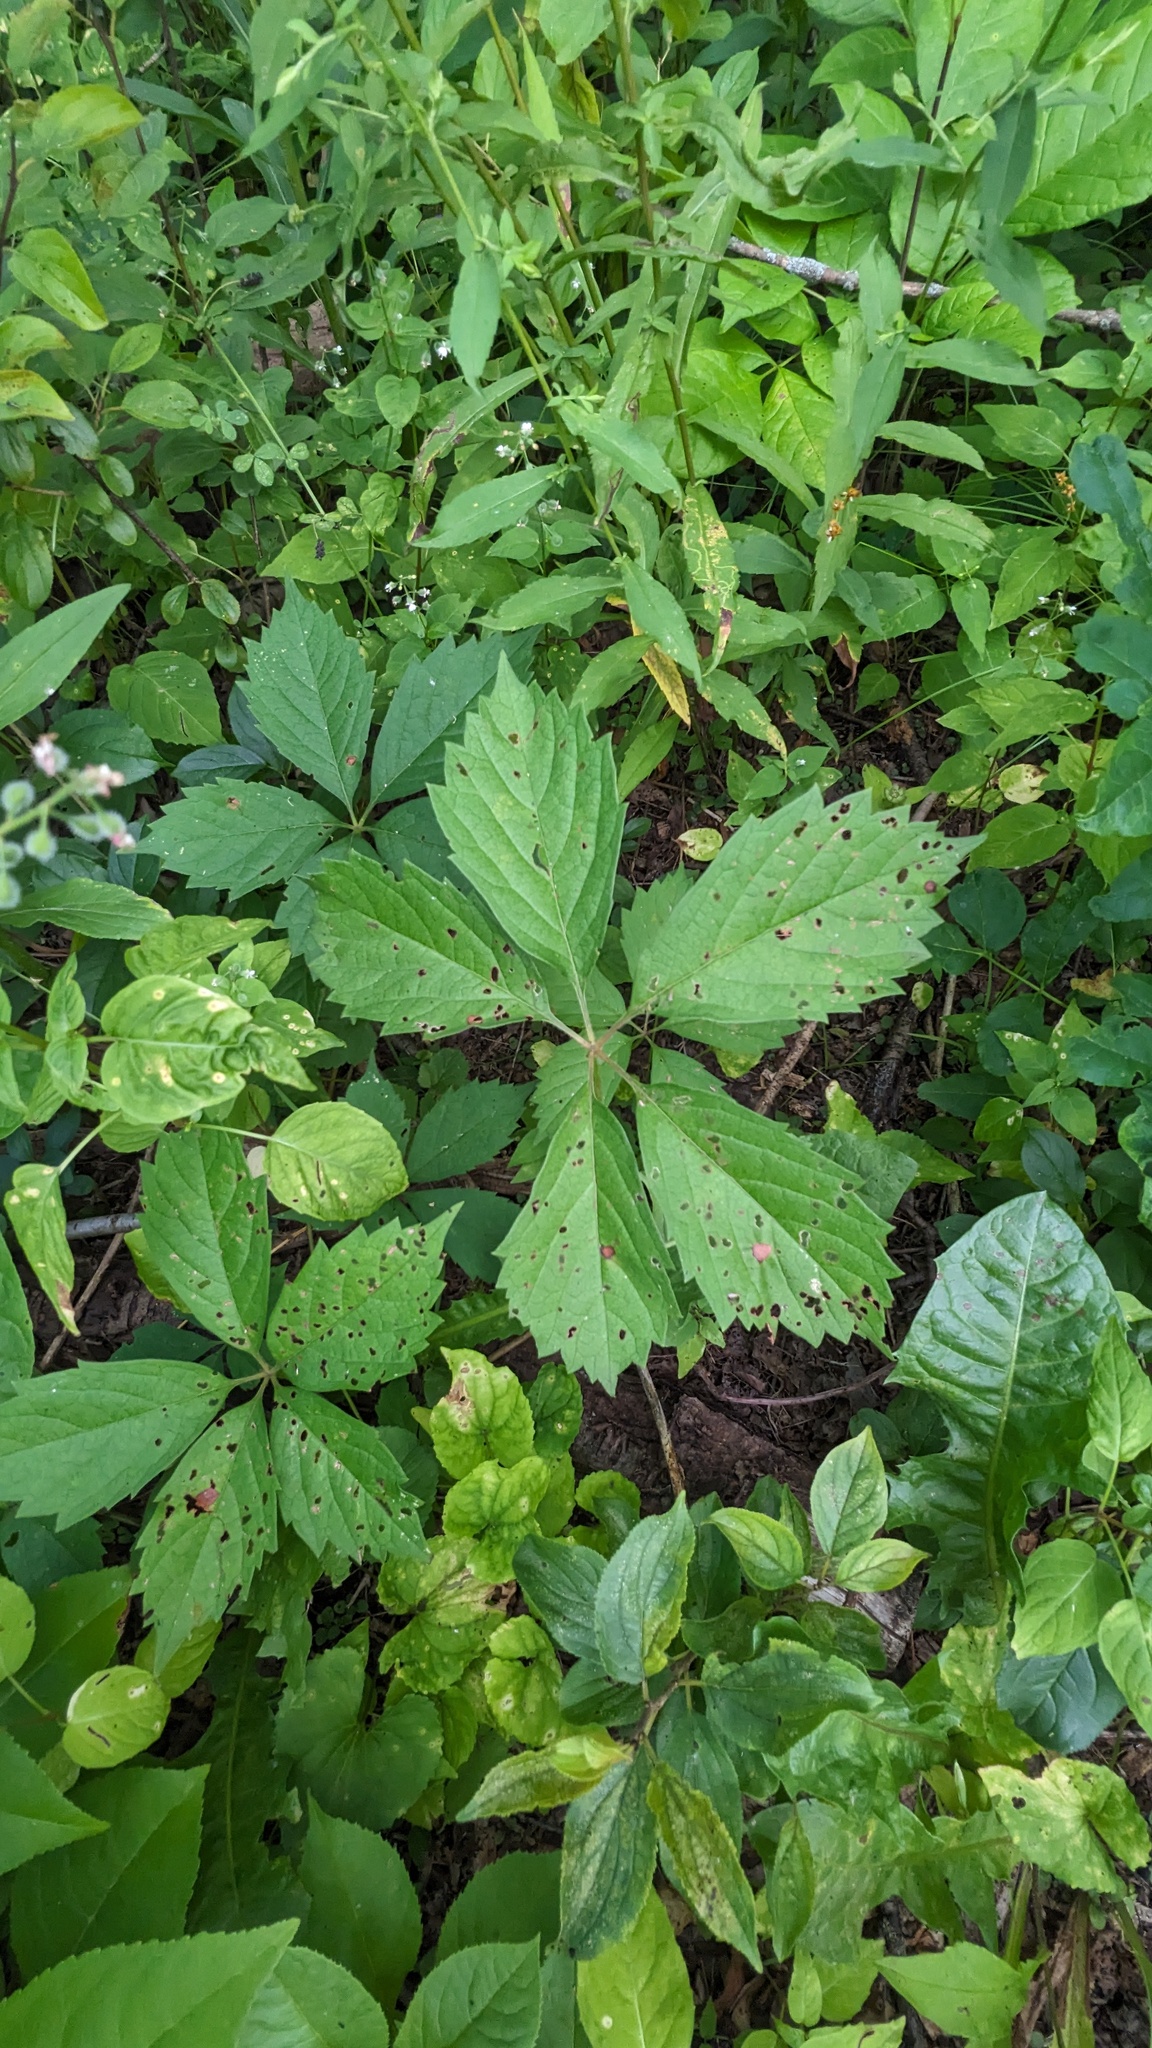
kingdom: Plantae
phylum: Tracheophyta
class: Magnoliopsida
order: Vitales
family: Vitaceae
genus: Parthenocissus
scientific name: Parthenocissus inserta
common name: False virginia-creeper
